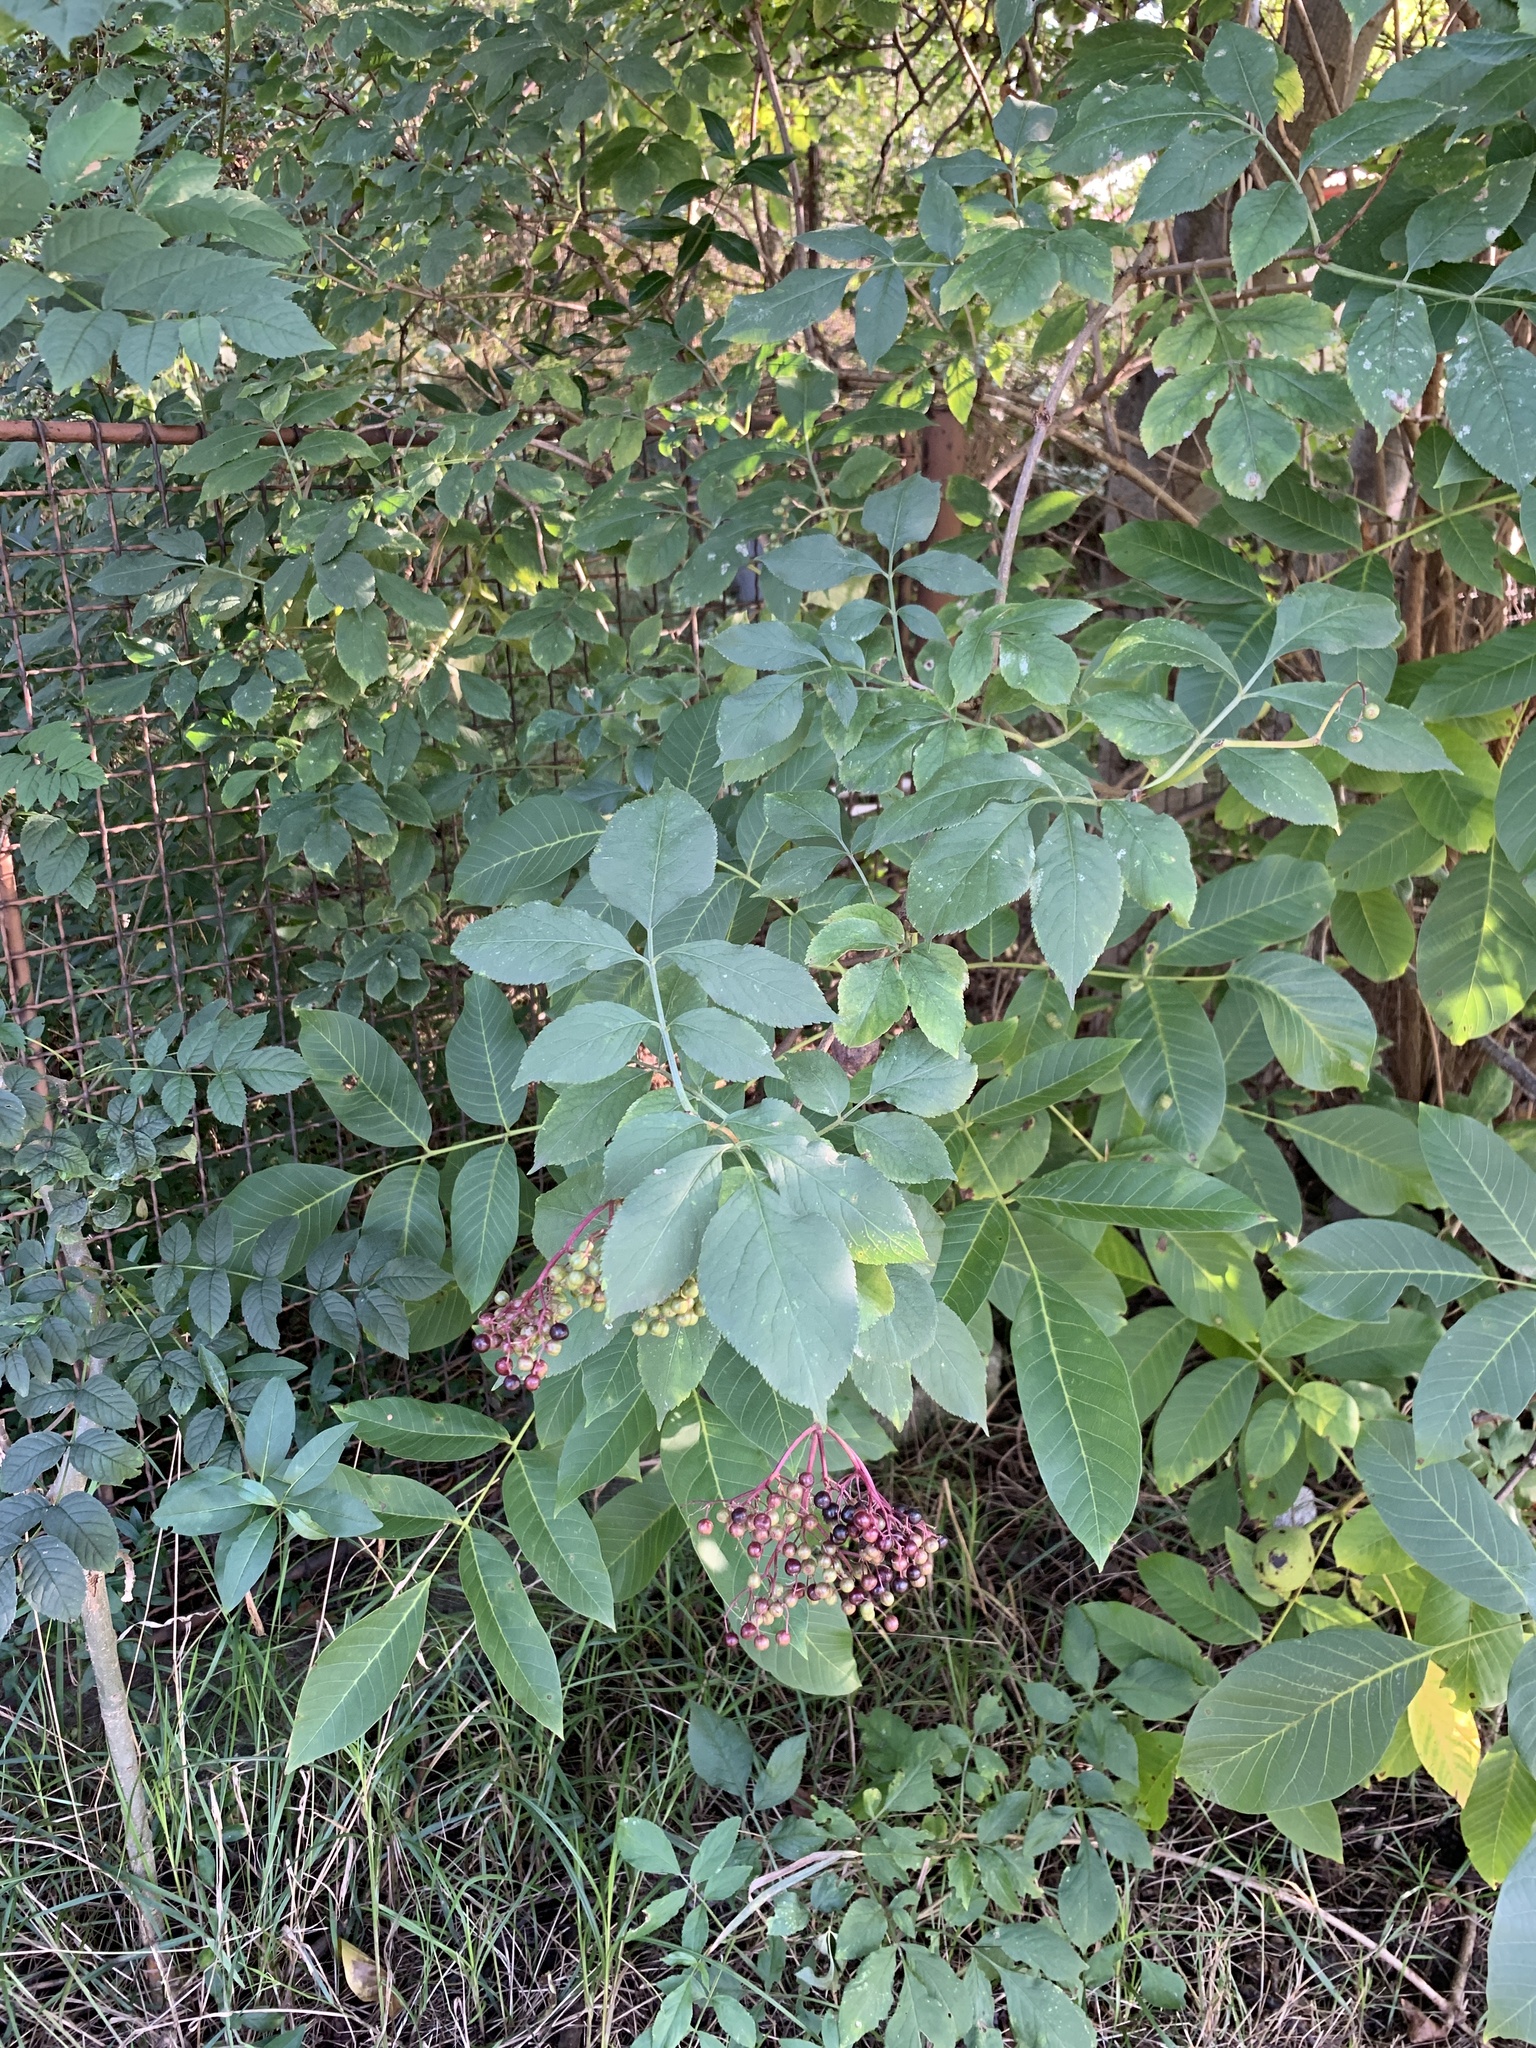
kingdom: Plantae
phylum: Tracheophyta
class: Magnoliopsida
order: Dipsacales
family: Viburnaceae
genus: Sambucus
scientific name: Sambucus nigra
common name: Elder
